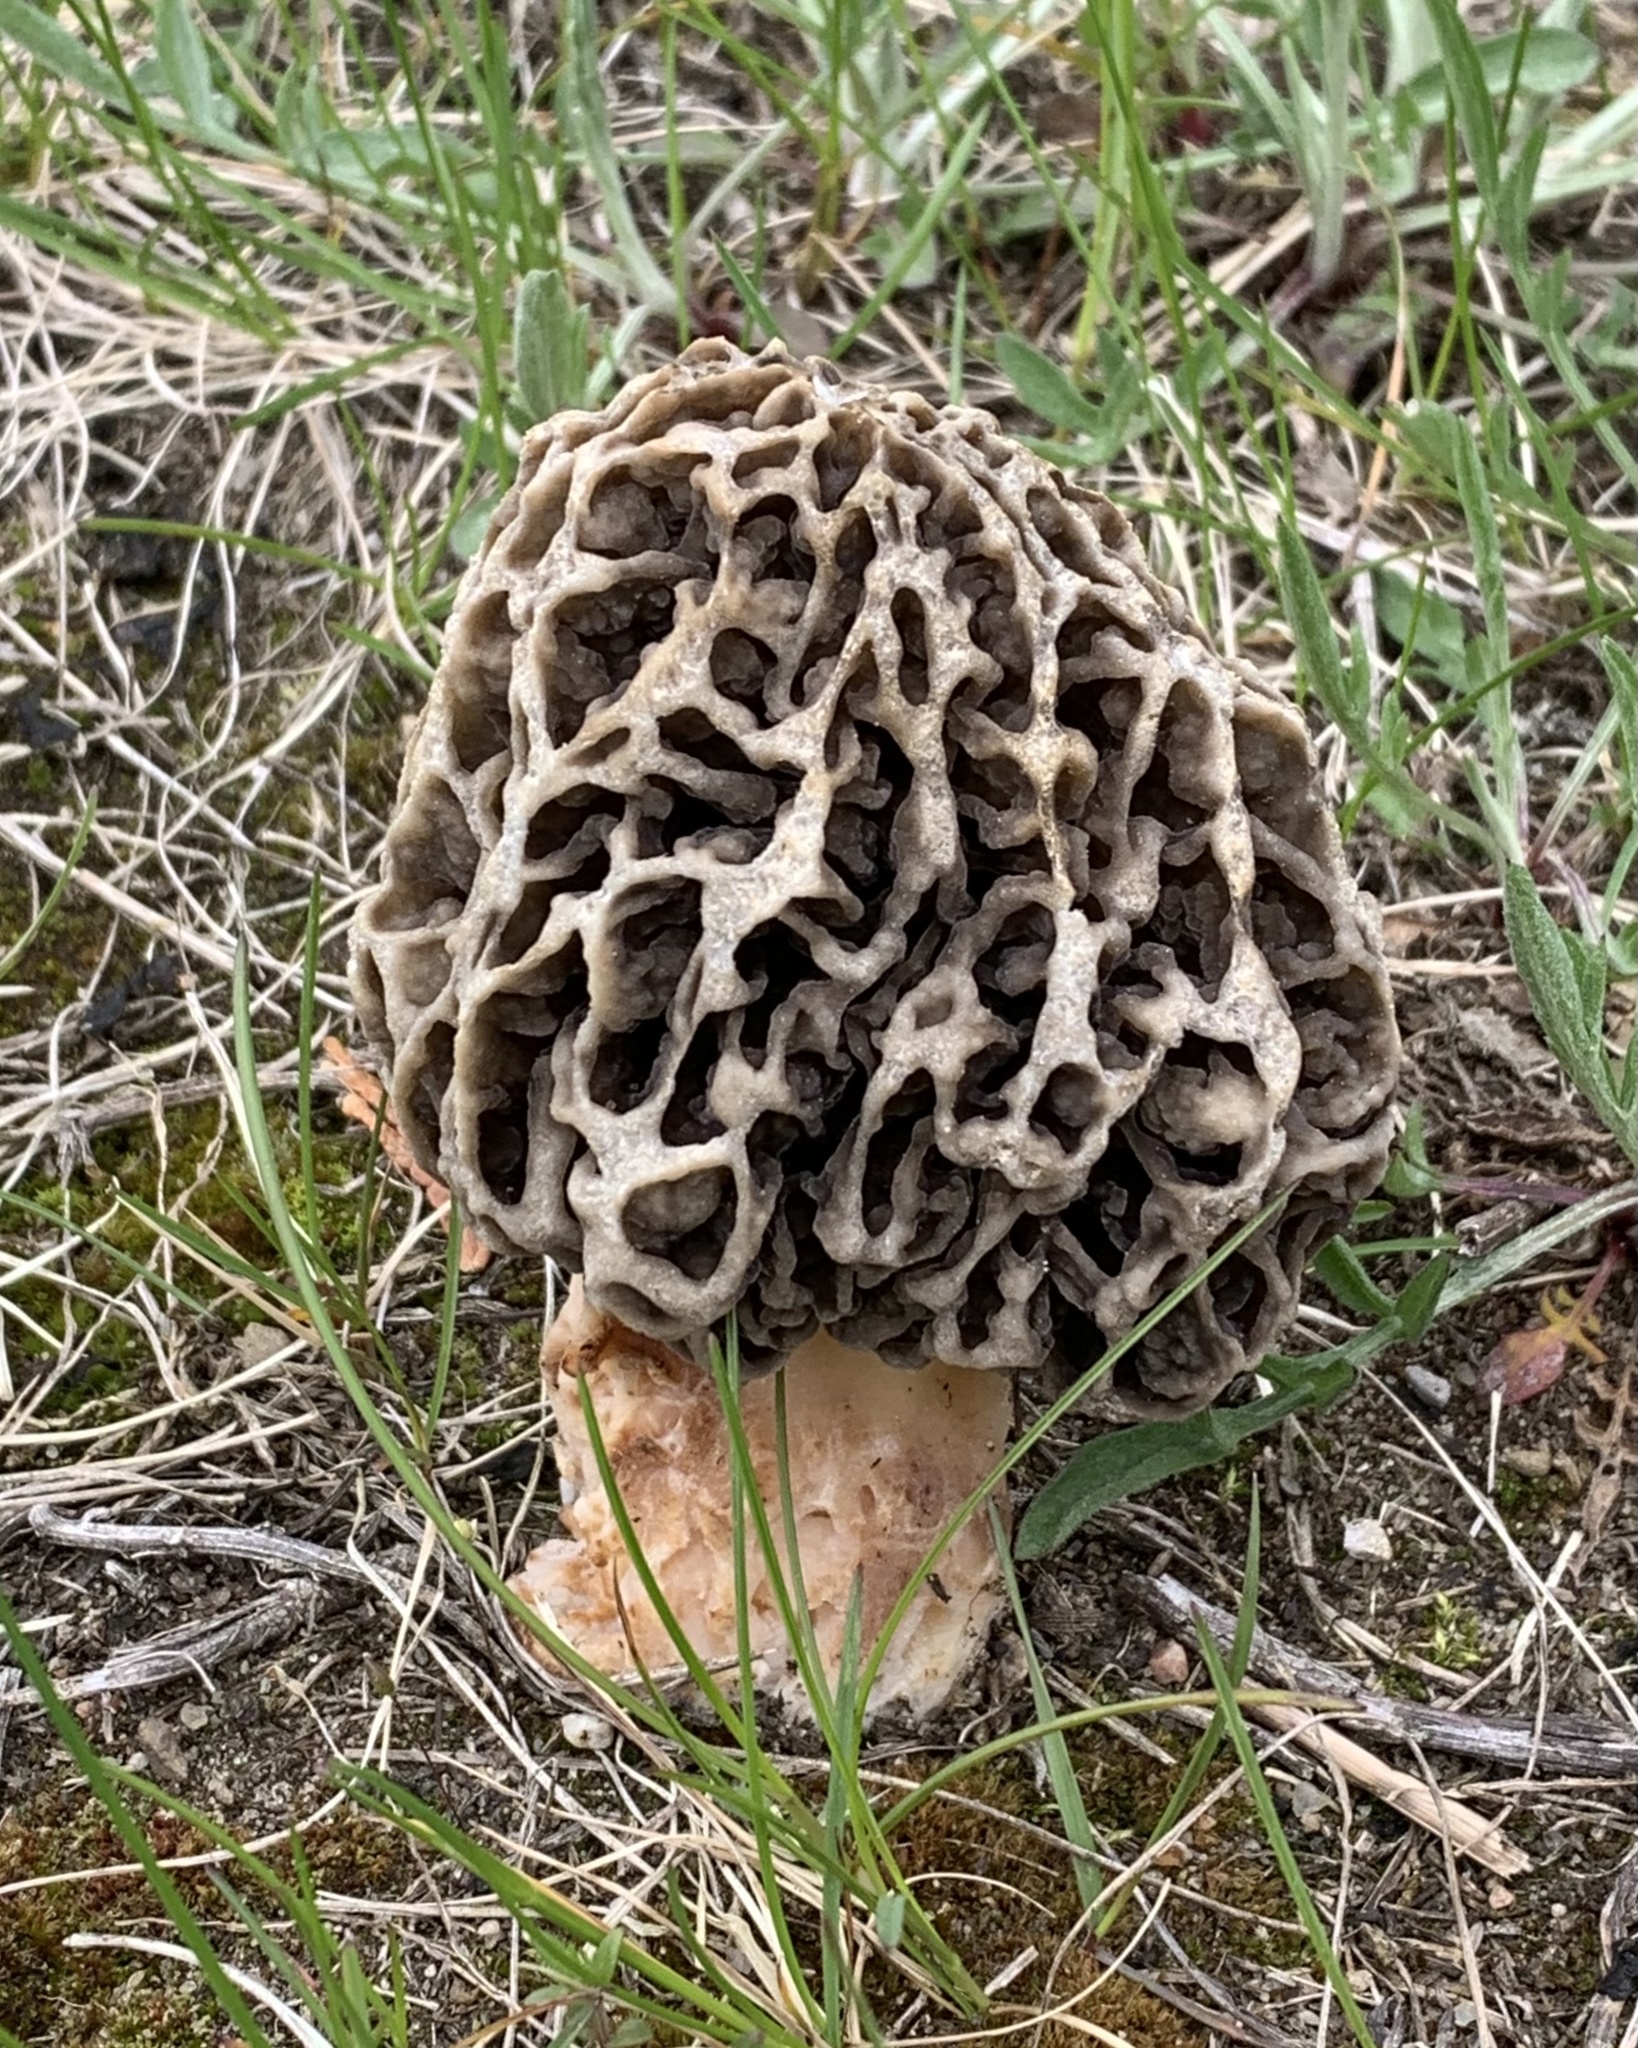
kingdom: Fungi
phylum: Ascomycota
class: Pezizomycetes
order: Pezizales
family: Morchellaceae
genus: Morchella
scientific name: Morchella americana
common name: White morel
